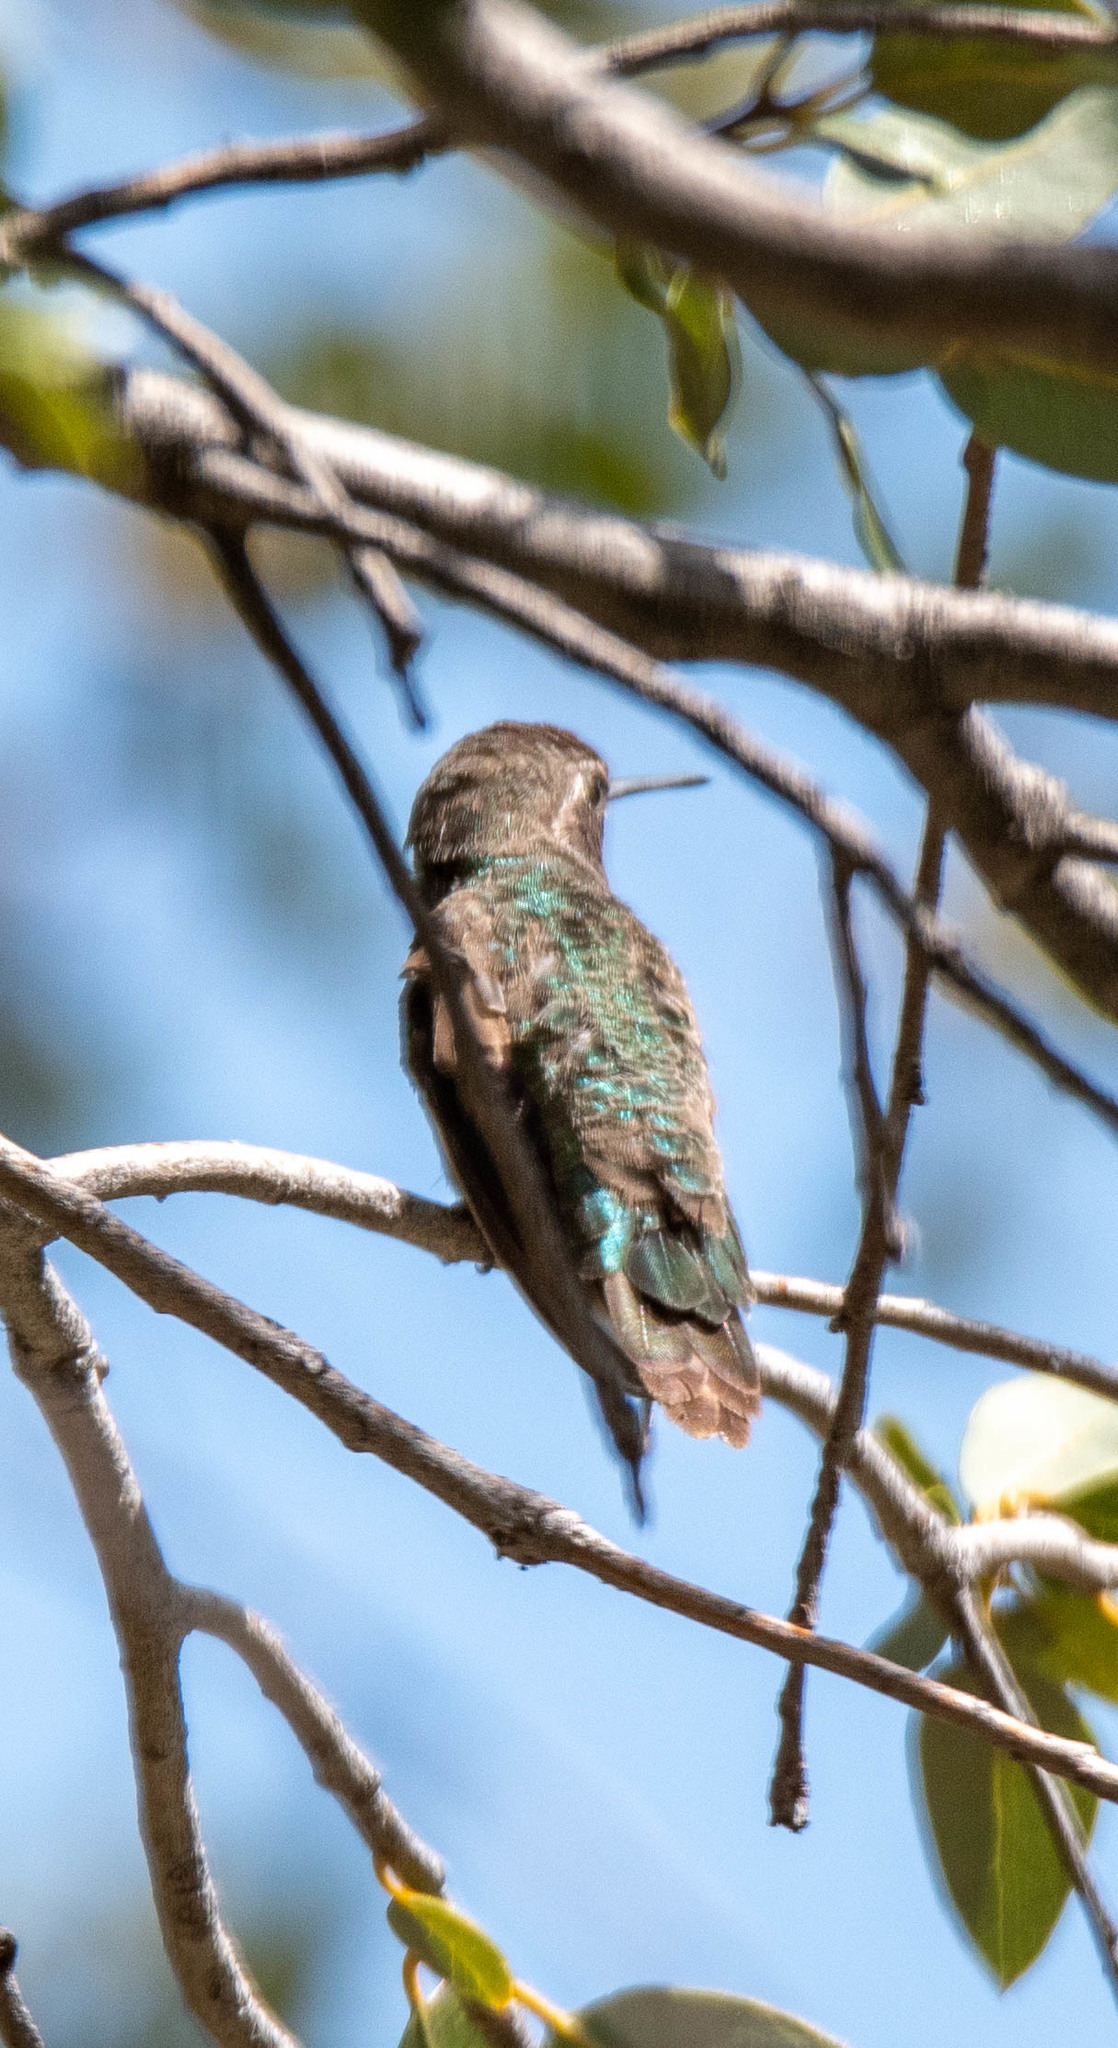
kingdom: Animalia
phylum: Chordata
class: Aves
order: Apodiformes
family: Trochilidae
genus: Calypte
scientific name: Calypte anna
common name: Anna's hummingbird
